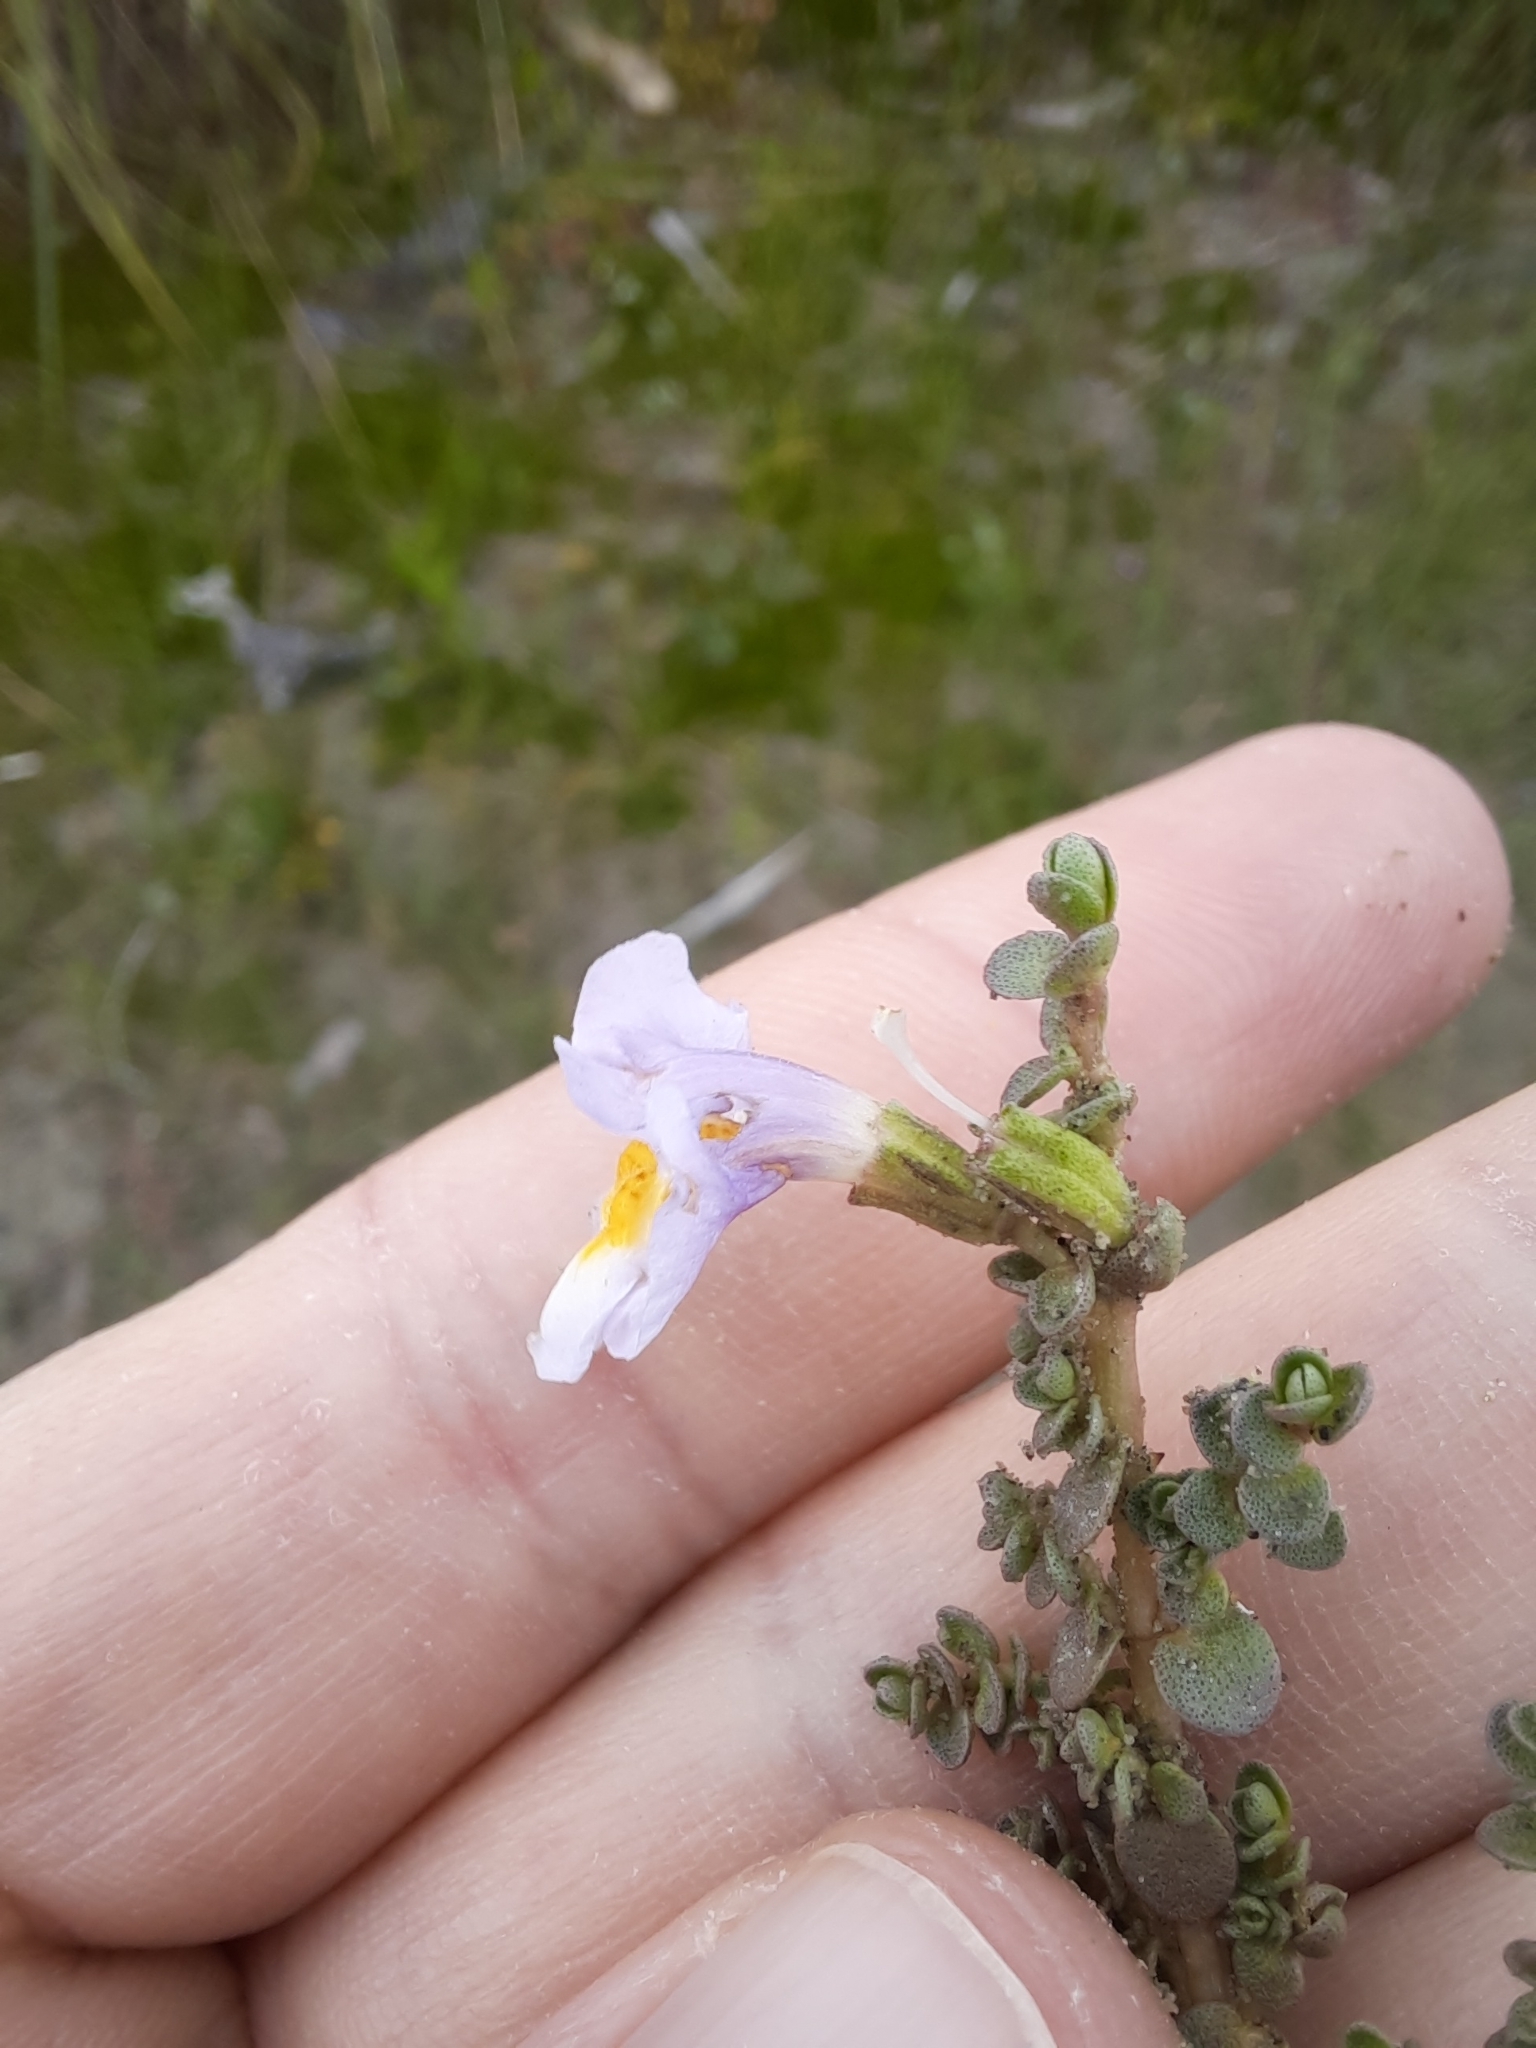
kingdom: Plantae
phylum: Tracheophyta
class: Magnoliopsida
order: Lamiales
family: Phrymaceae
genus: Thyridia
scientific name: Thyridia repens
